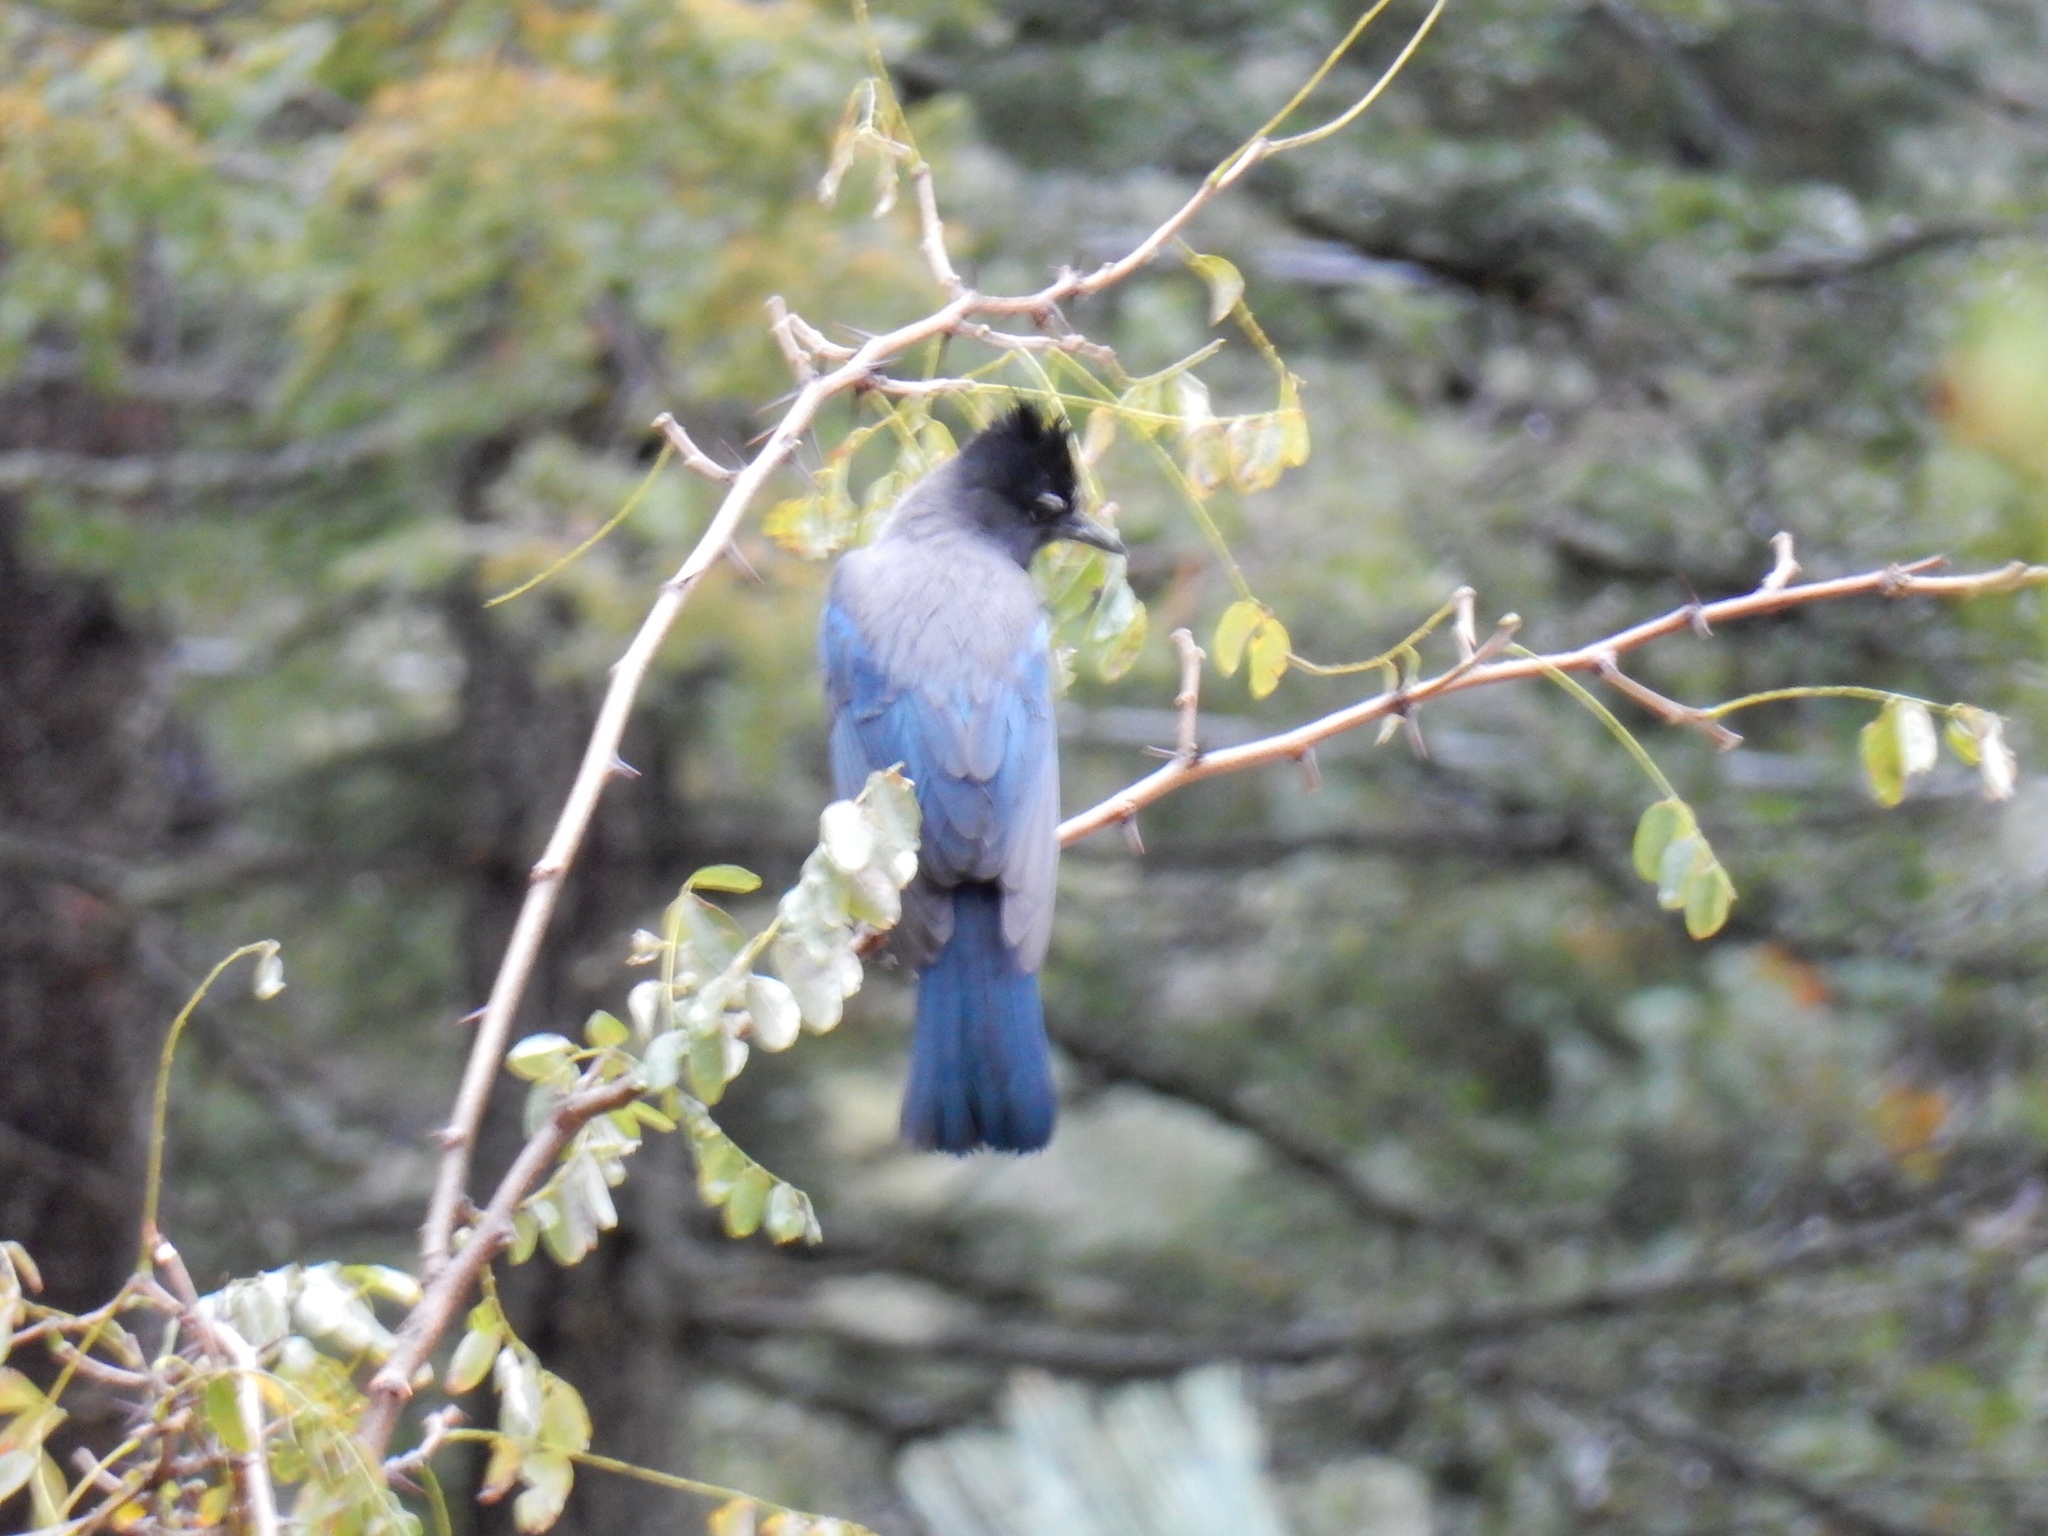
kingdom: Animalia
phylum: Chordata
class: Aves
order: Passeriformes
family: Corvidae
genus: Cyanocitta
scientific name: Cyanocitta stelleri
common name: Steller's jay
